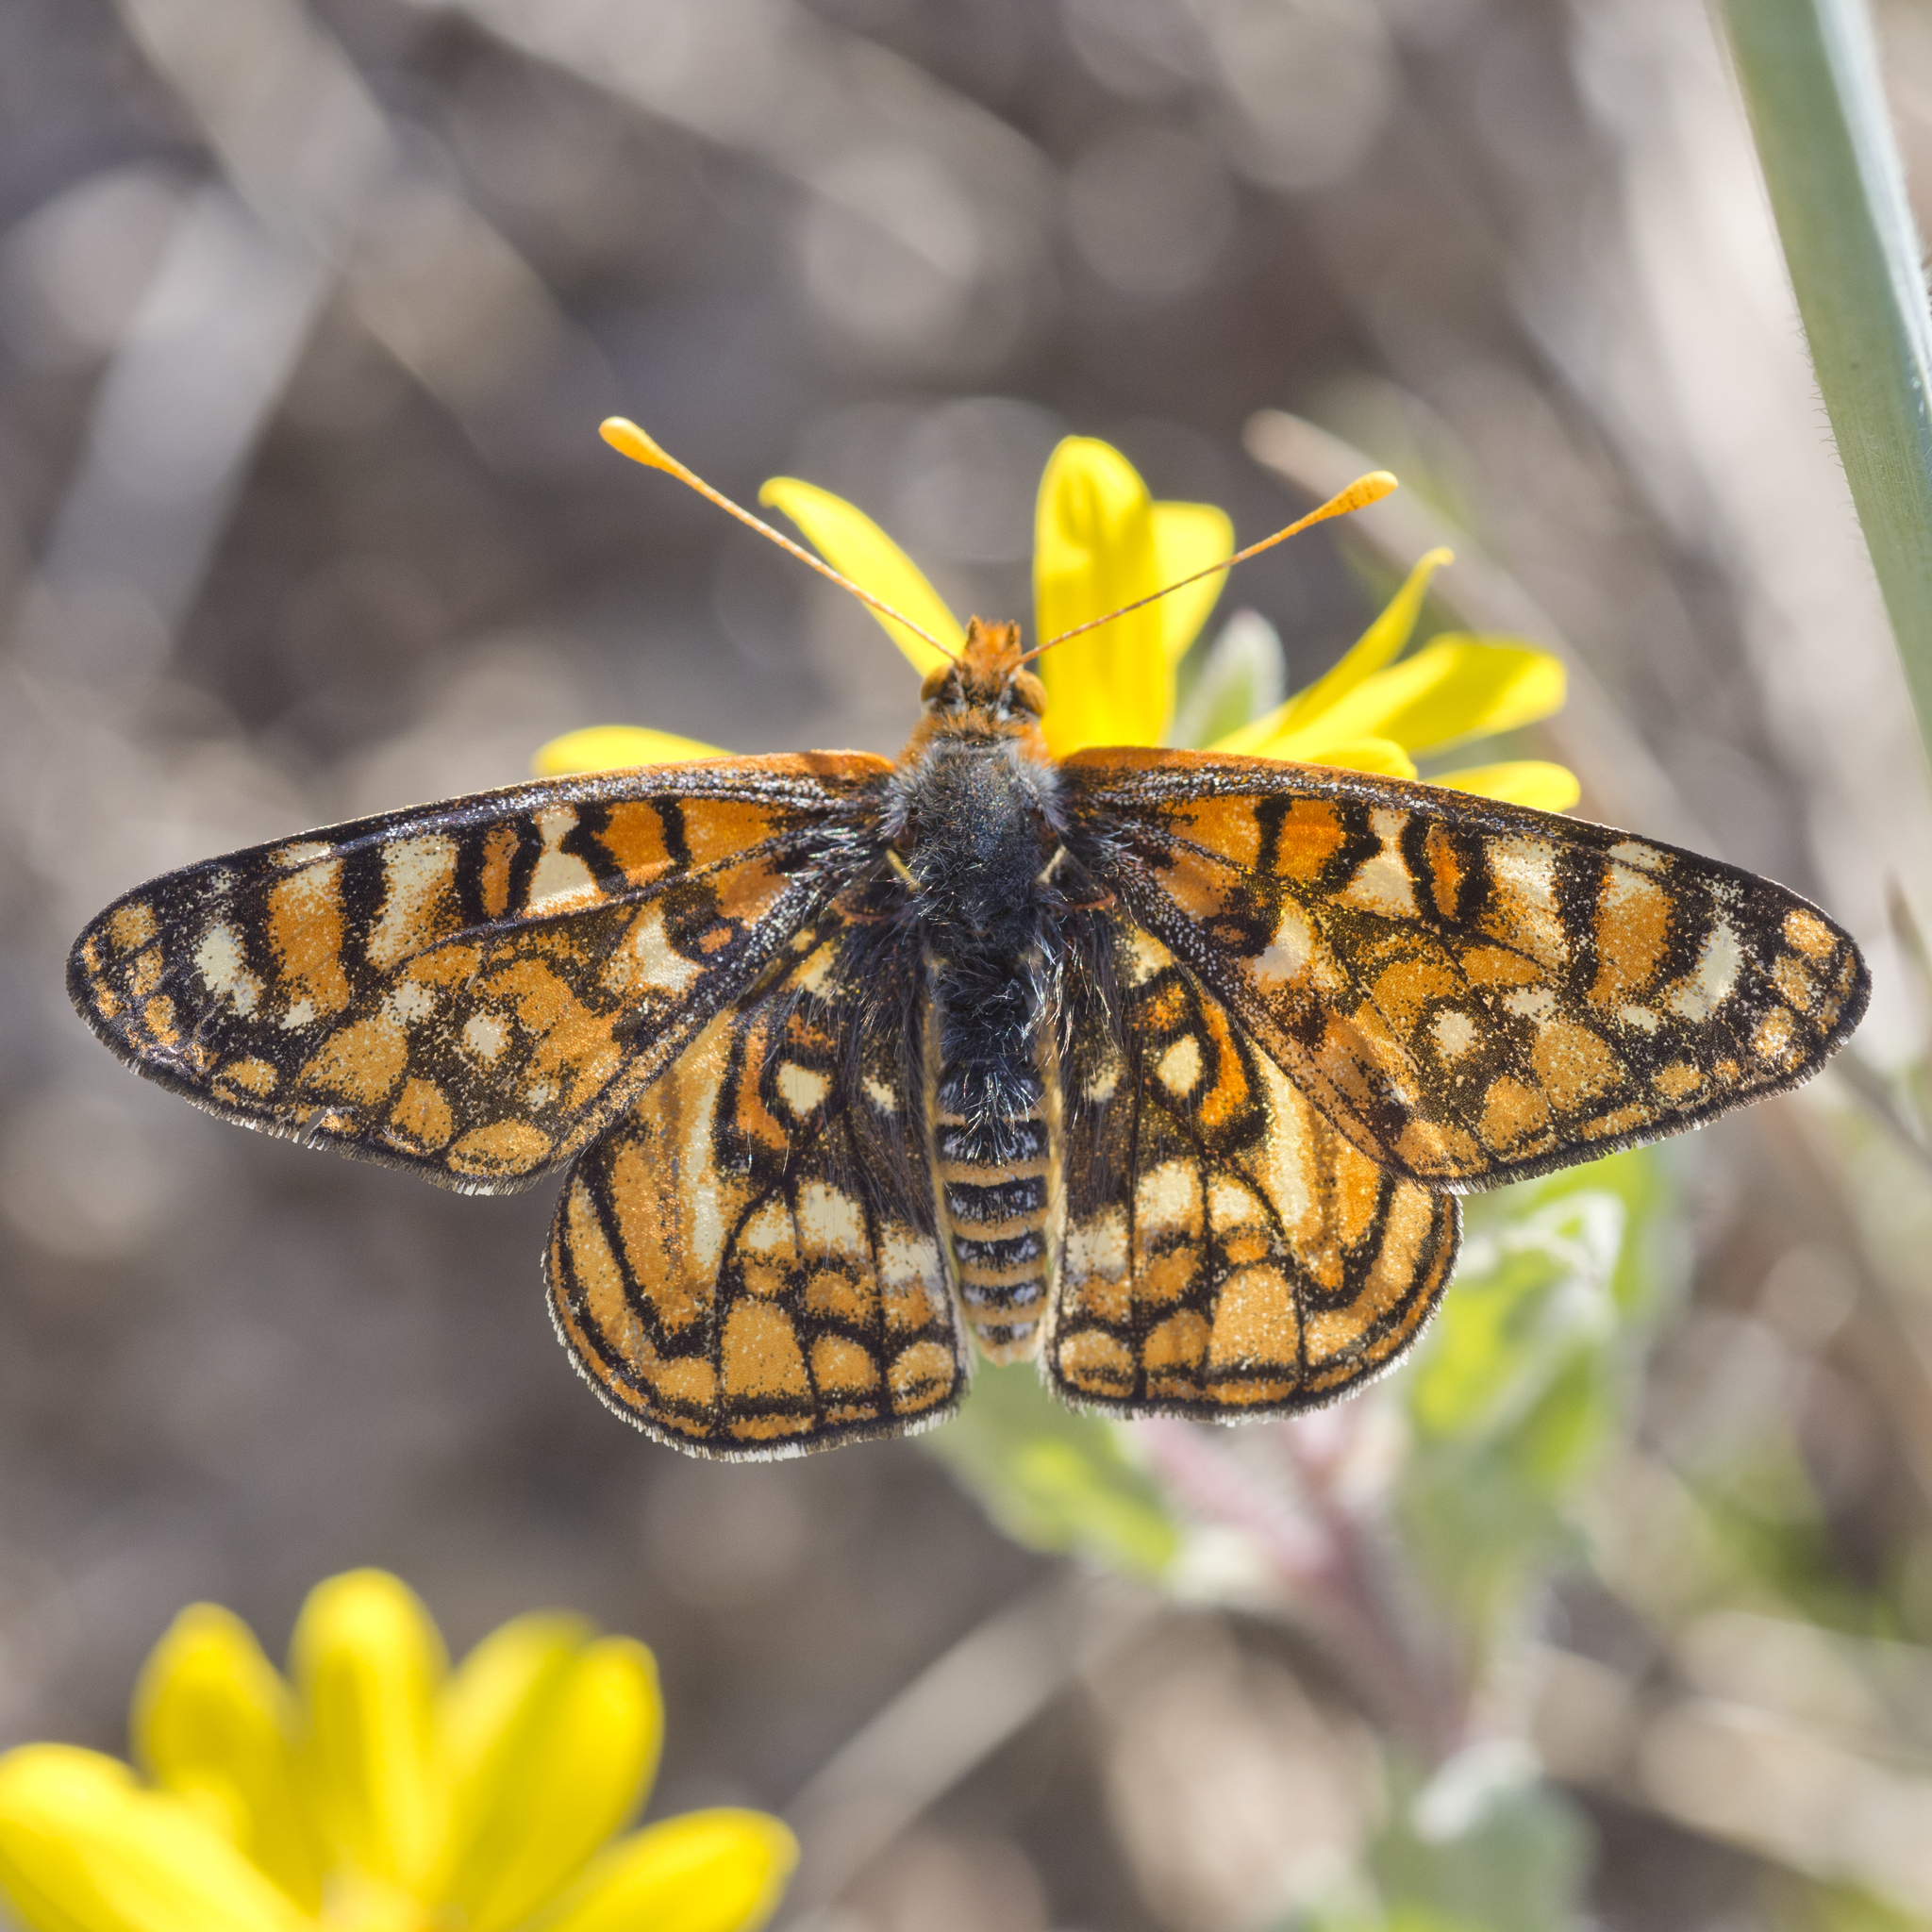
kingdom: Animalia
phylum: Arthropoda
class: Insecta
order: Lepidoptera
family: Nymphalidae
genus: Occidryas
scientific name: Occidryas anicia
